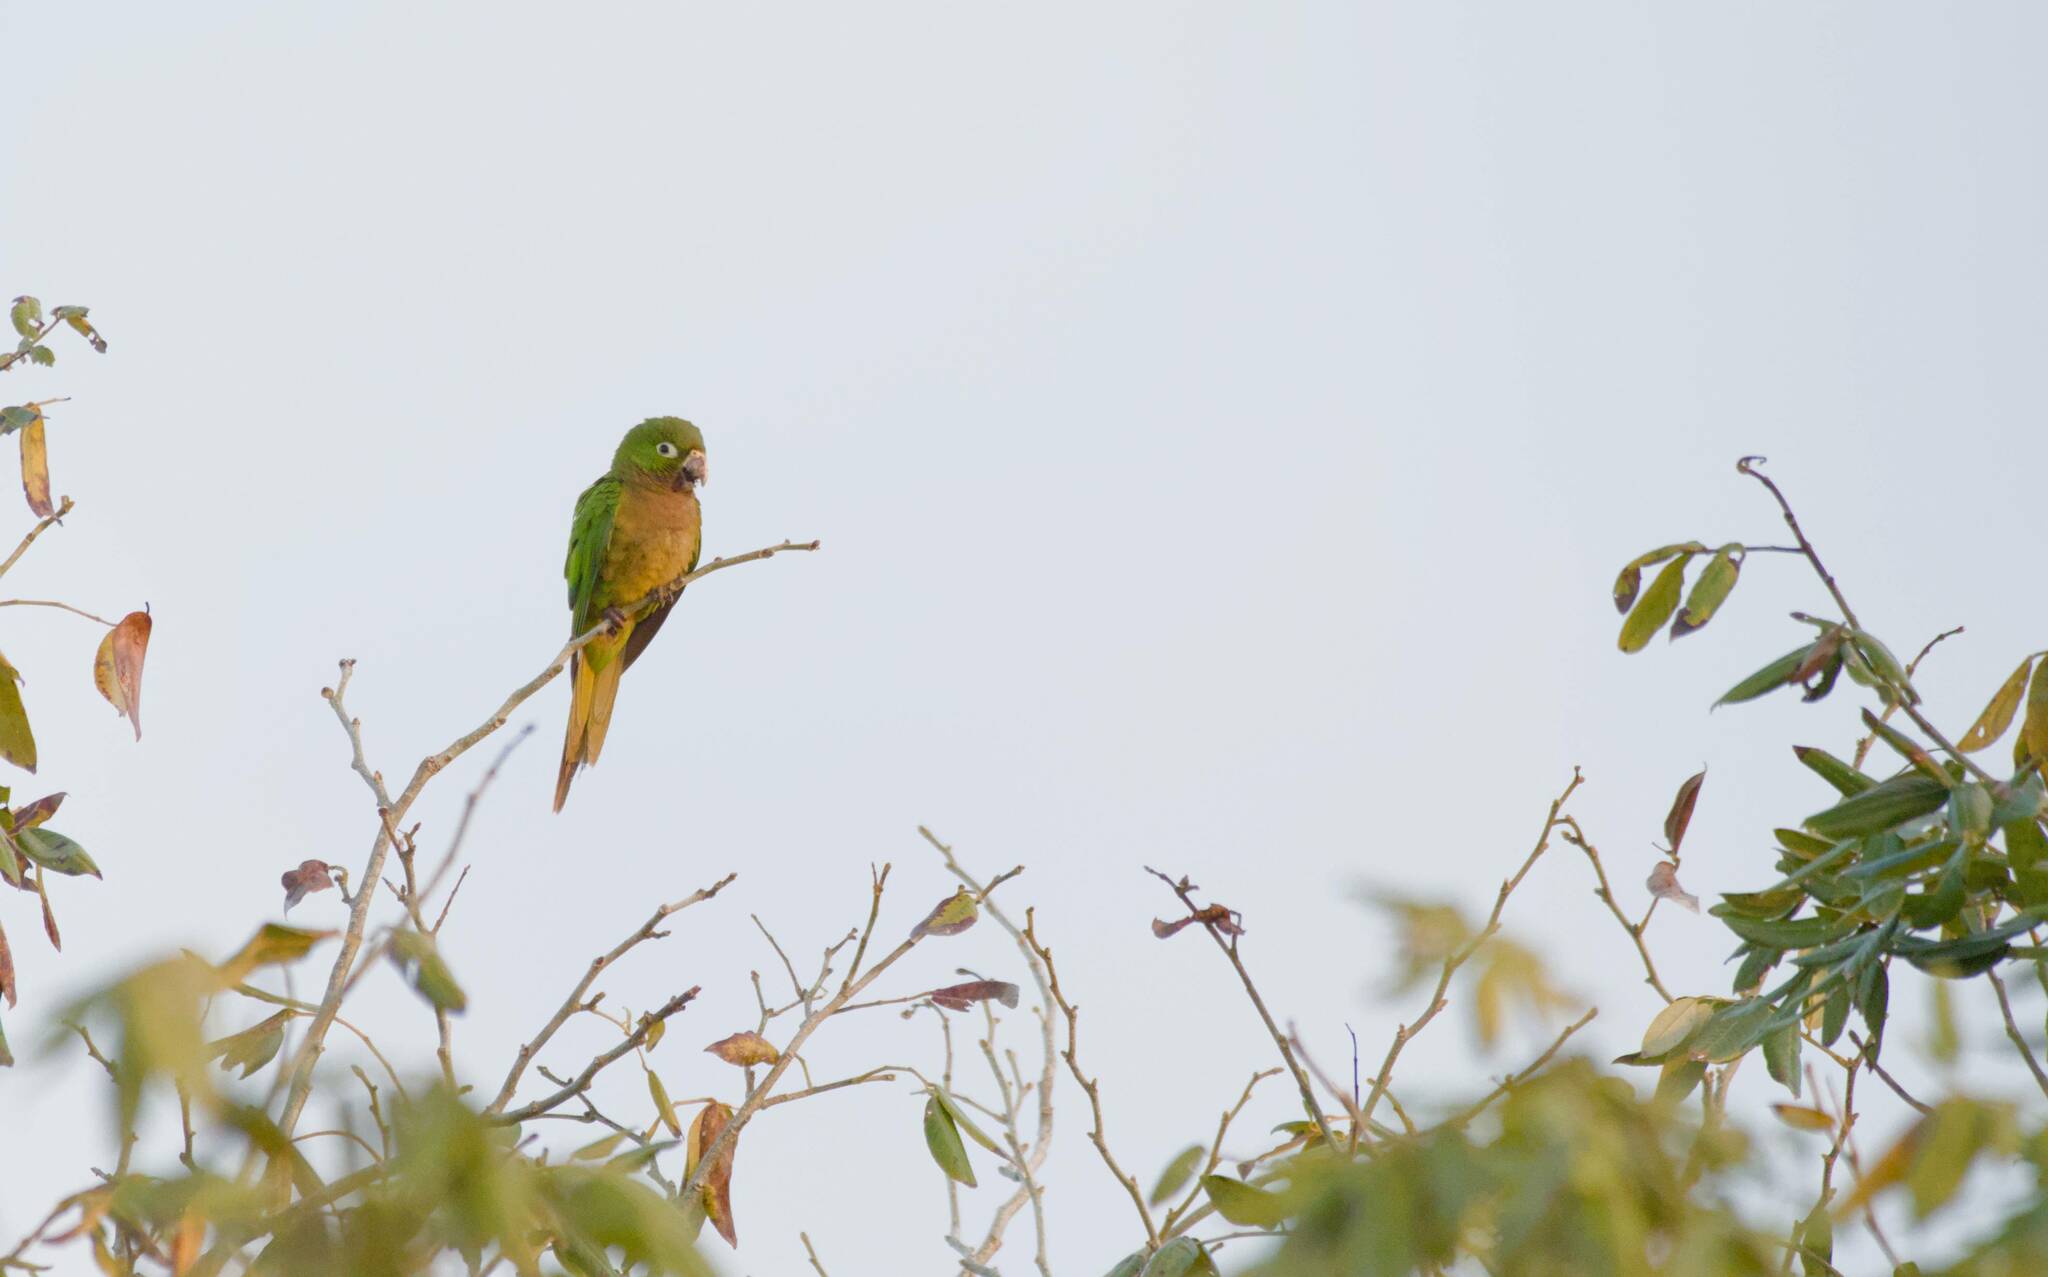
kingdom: Animalia
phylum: Chordata
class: Aves
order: Psittaciformes
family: Psittacidae
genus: Aratinga
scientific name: Aratinga nana
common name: Olive-throated parakeet
